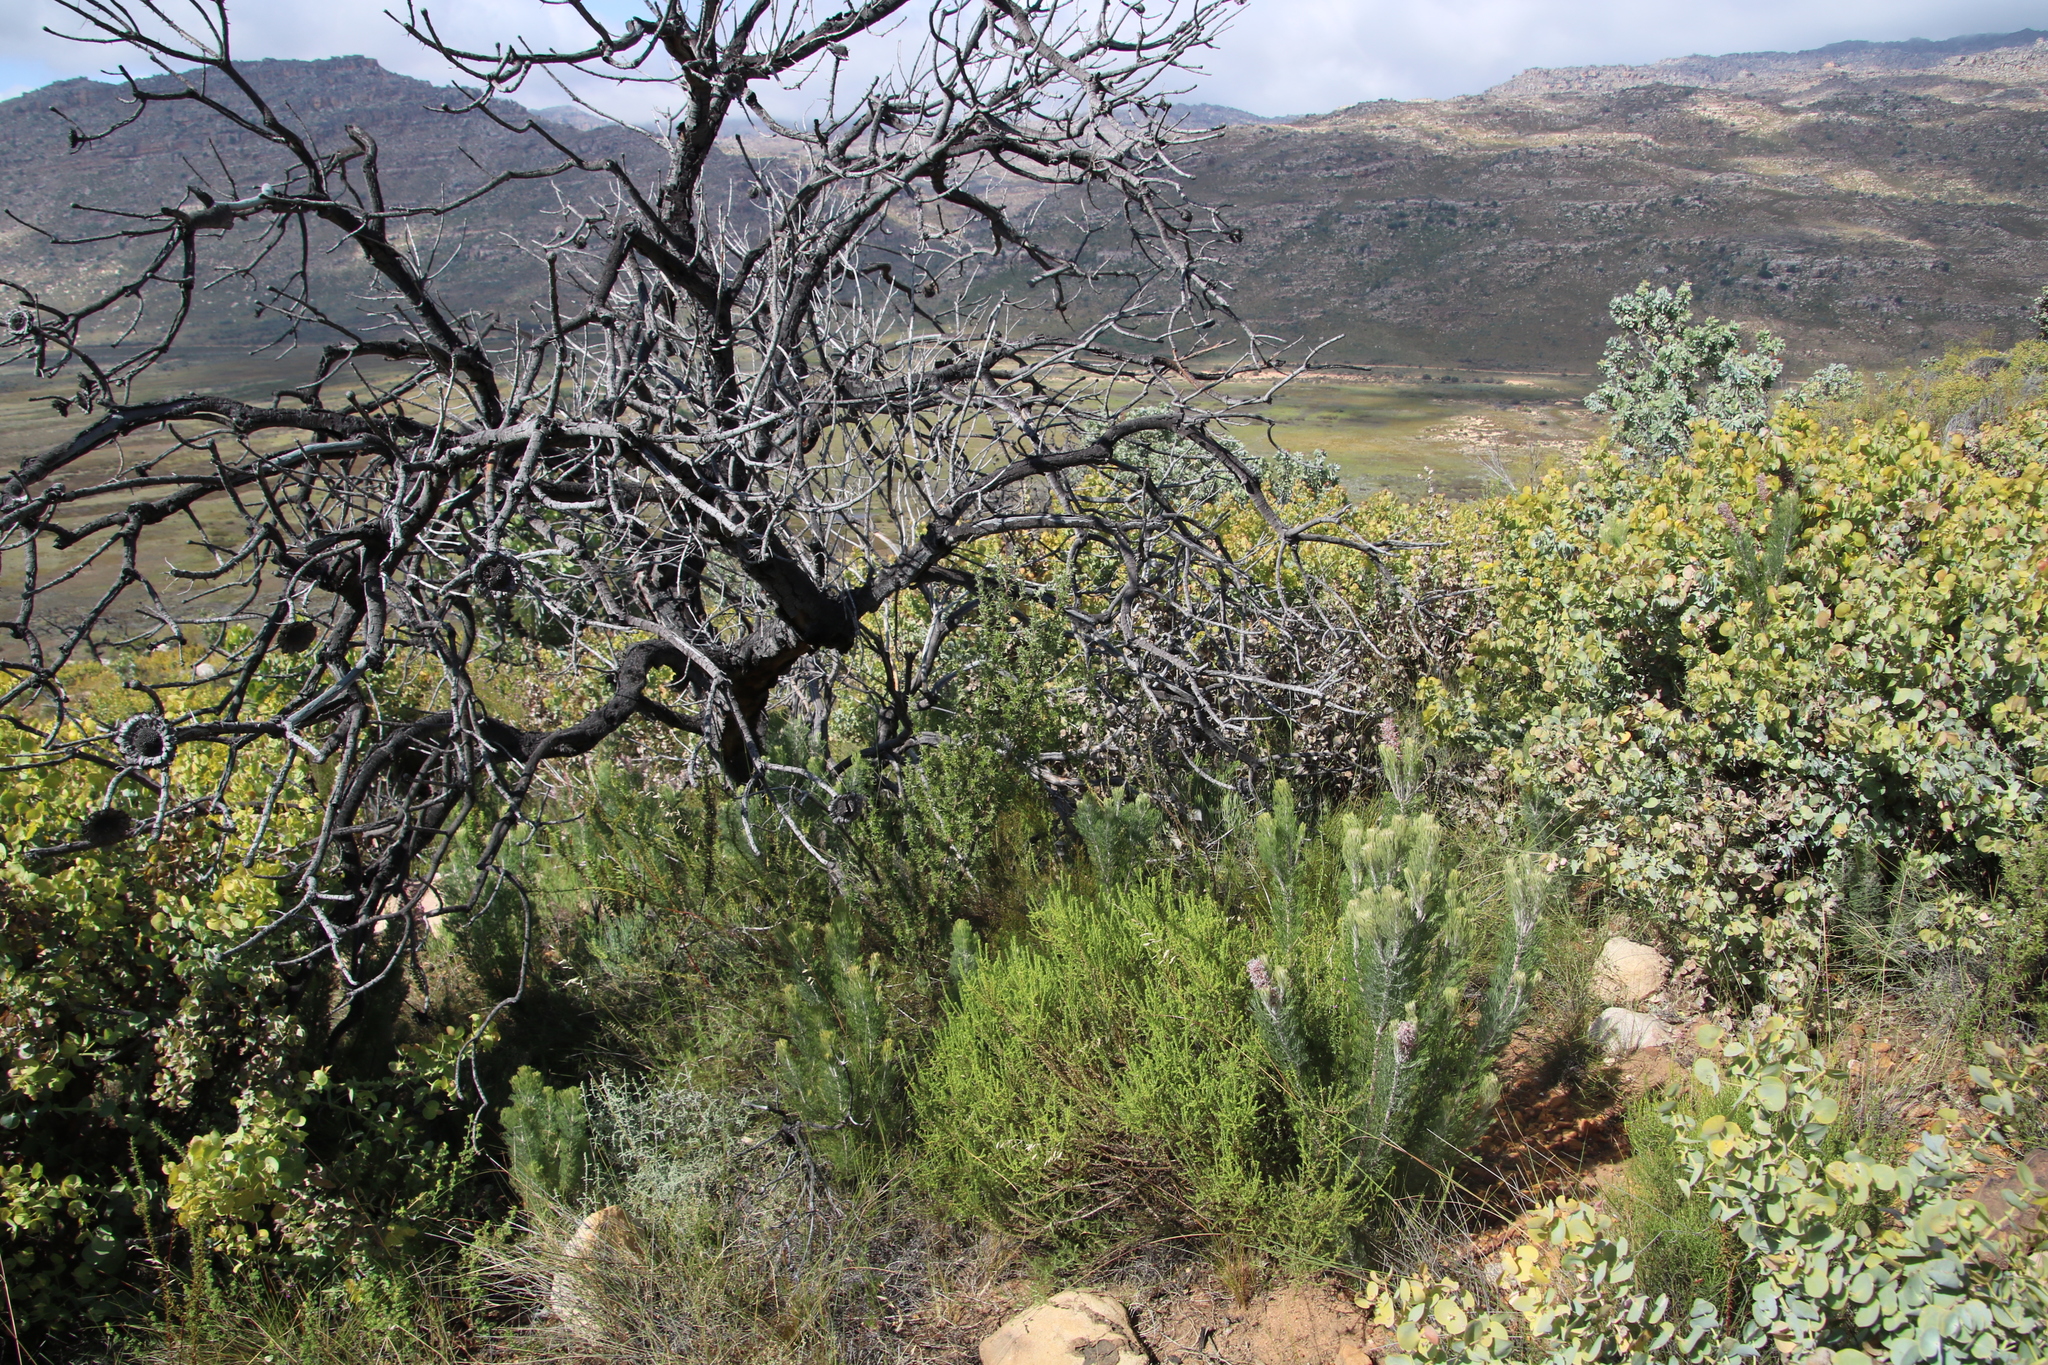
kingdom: Plantae
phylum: Tracheophyta
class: Magnoliopsida
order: Proteales
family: Proteaceae
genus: Paranomus
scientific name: Paranomus bracteolaris
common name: Bokkeveld tree sceptre
